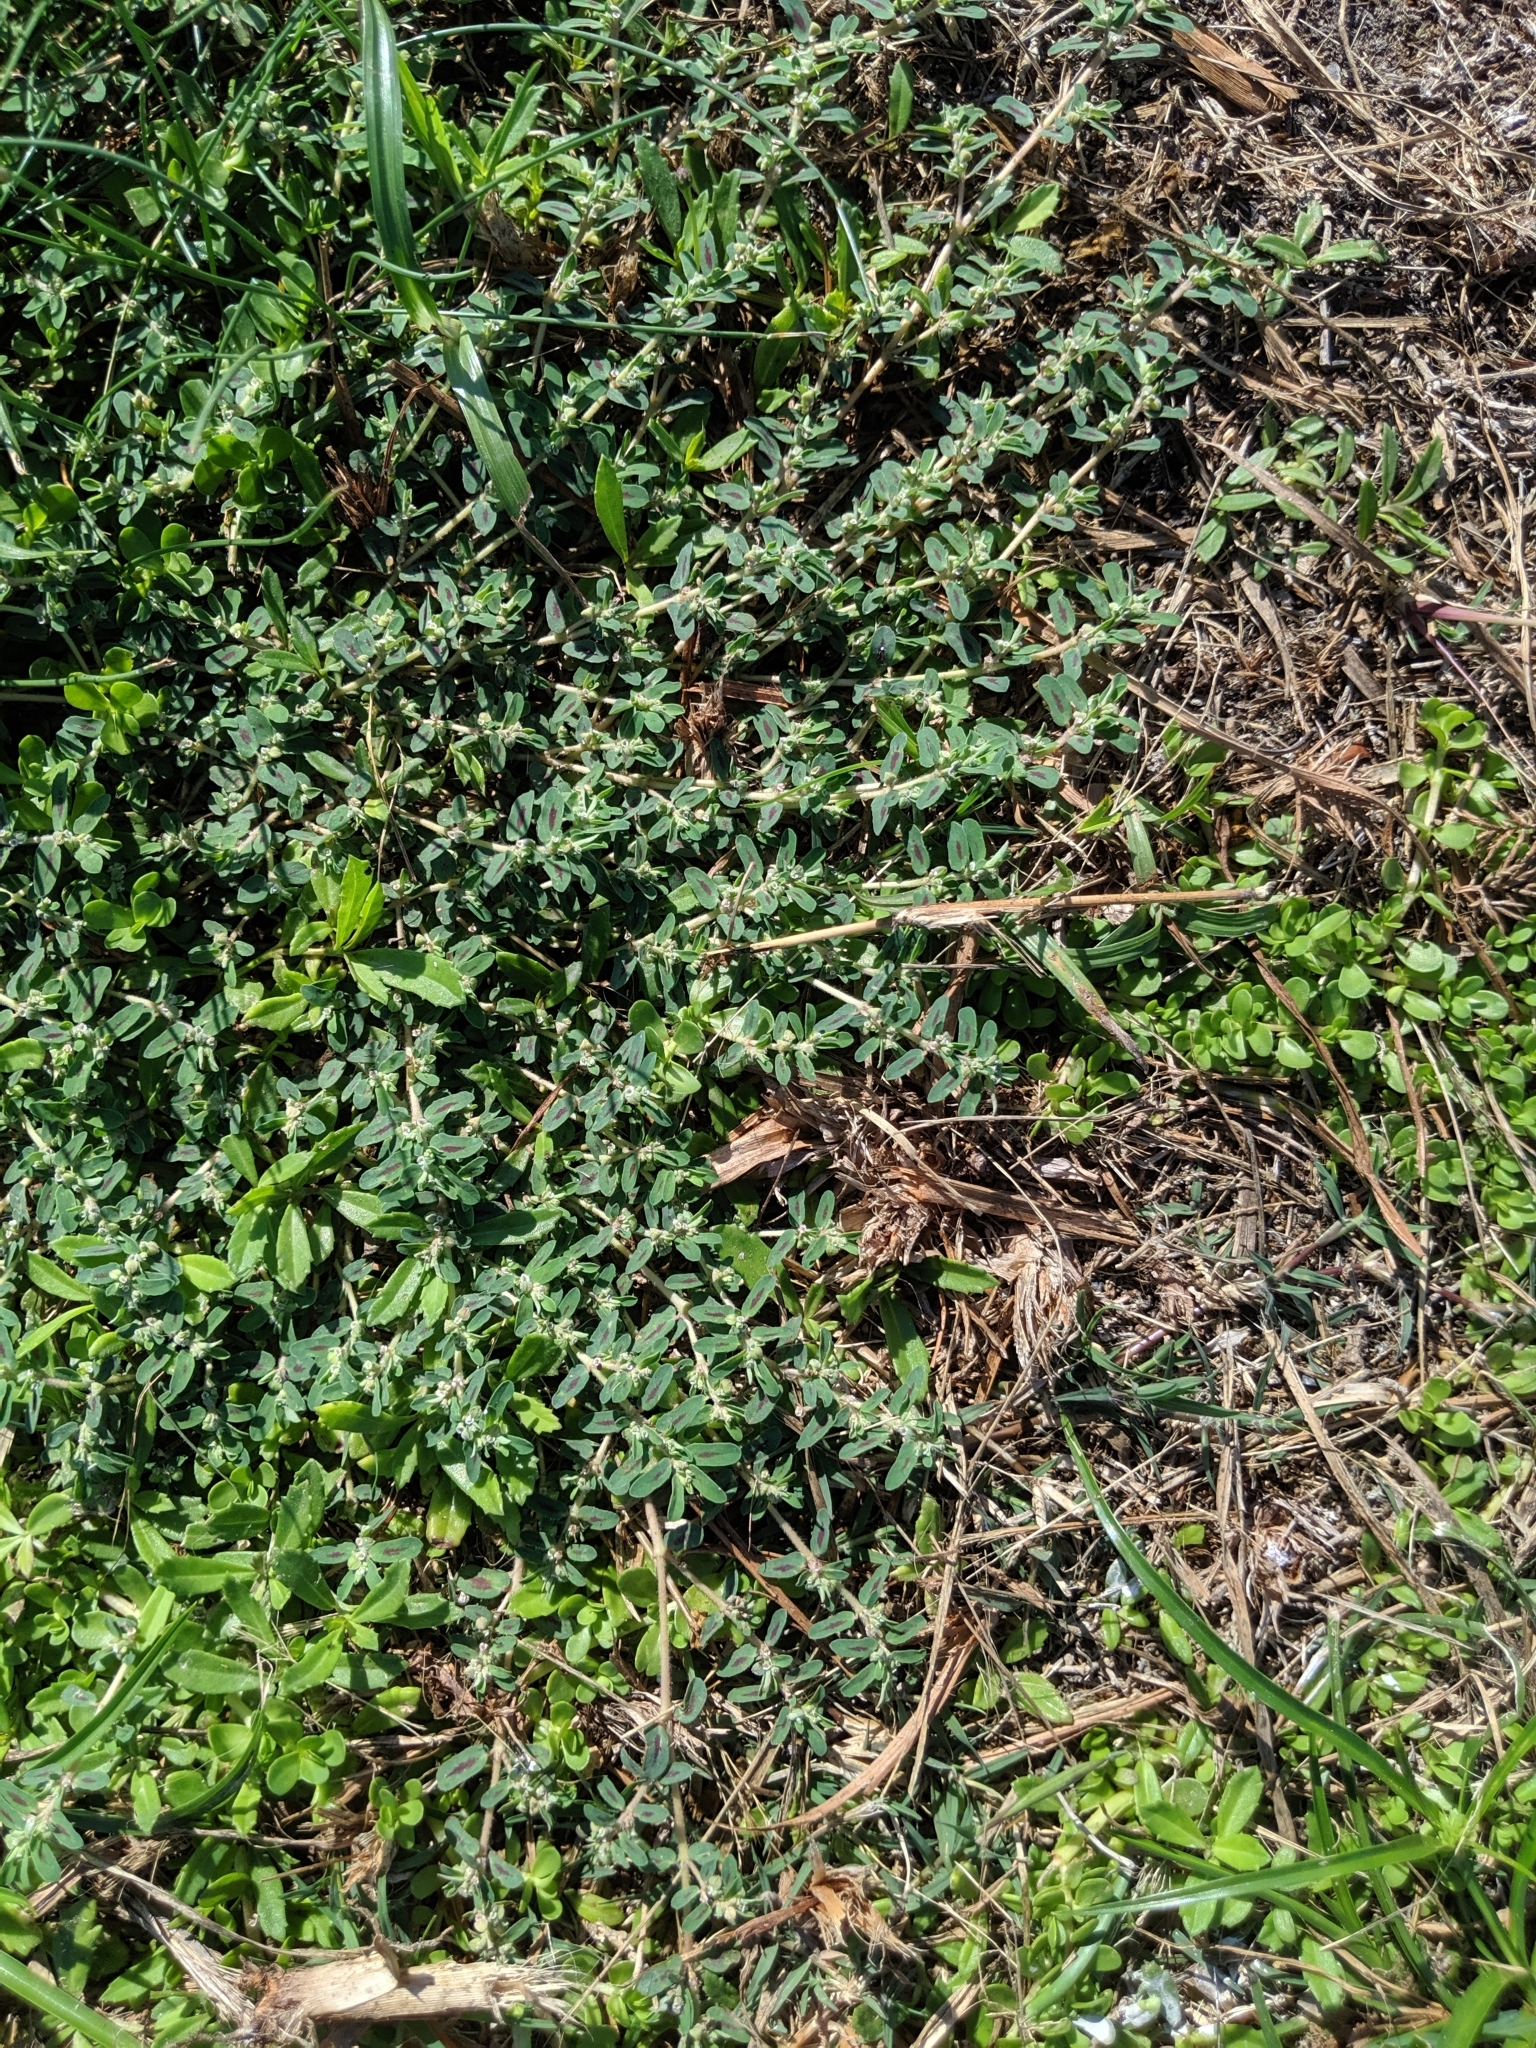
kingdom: Plantae
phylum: Tracheophyta
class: Magnoliopsida
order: Malpighiales
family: Euphorbiaceae
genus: Euphorbia
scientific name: Euphorbia maculata
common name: Spotted spurge
